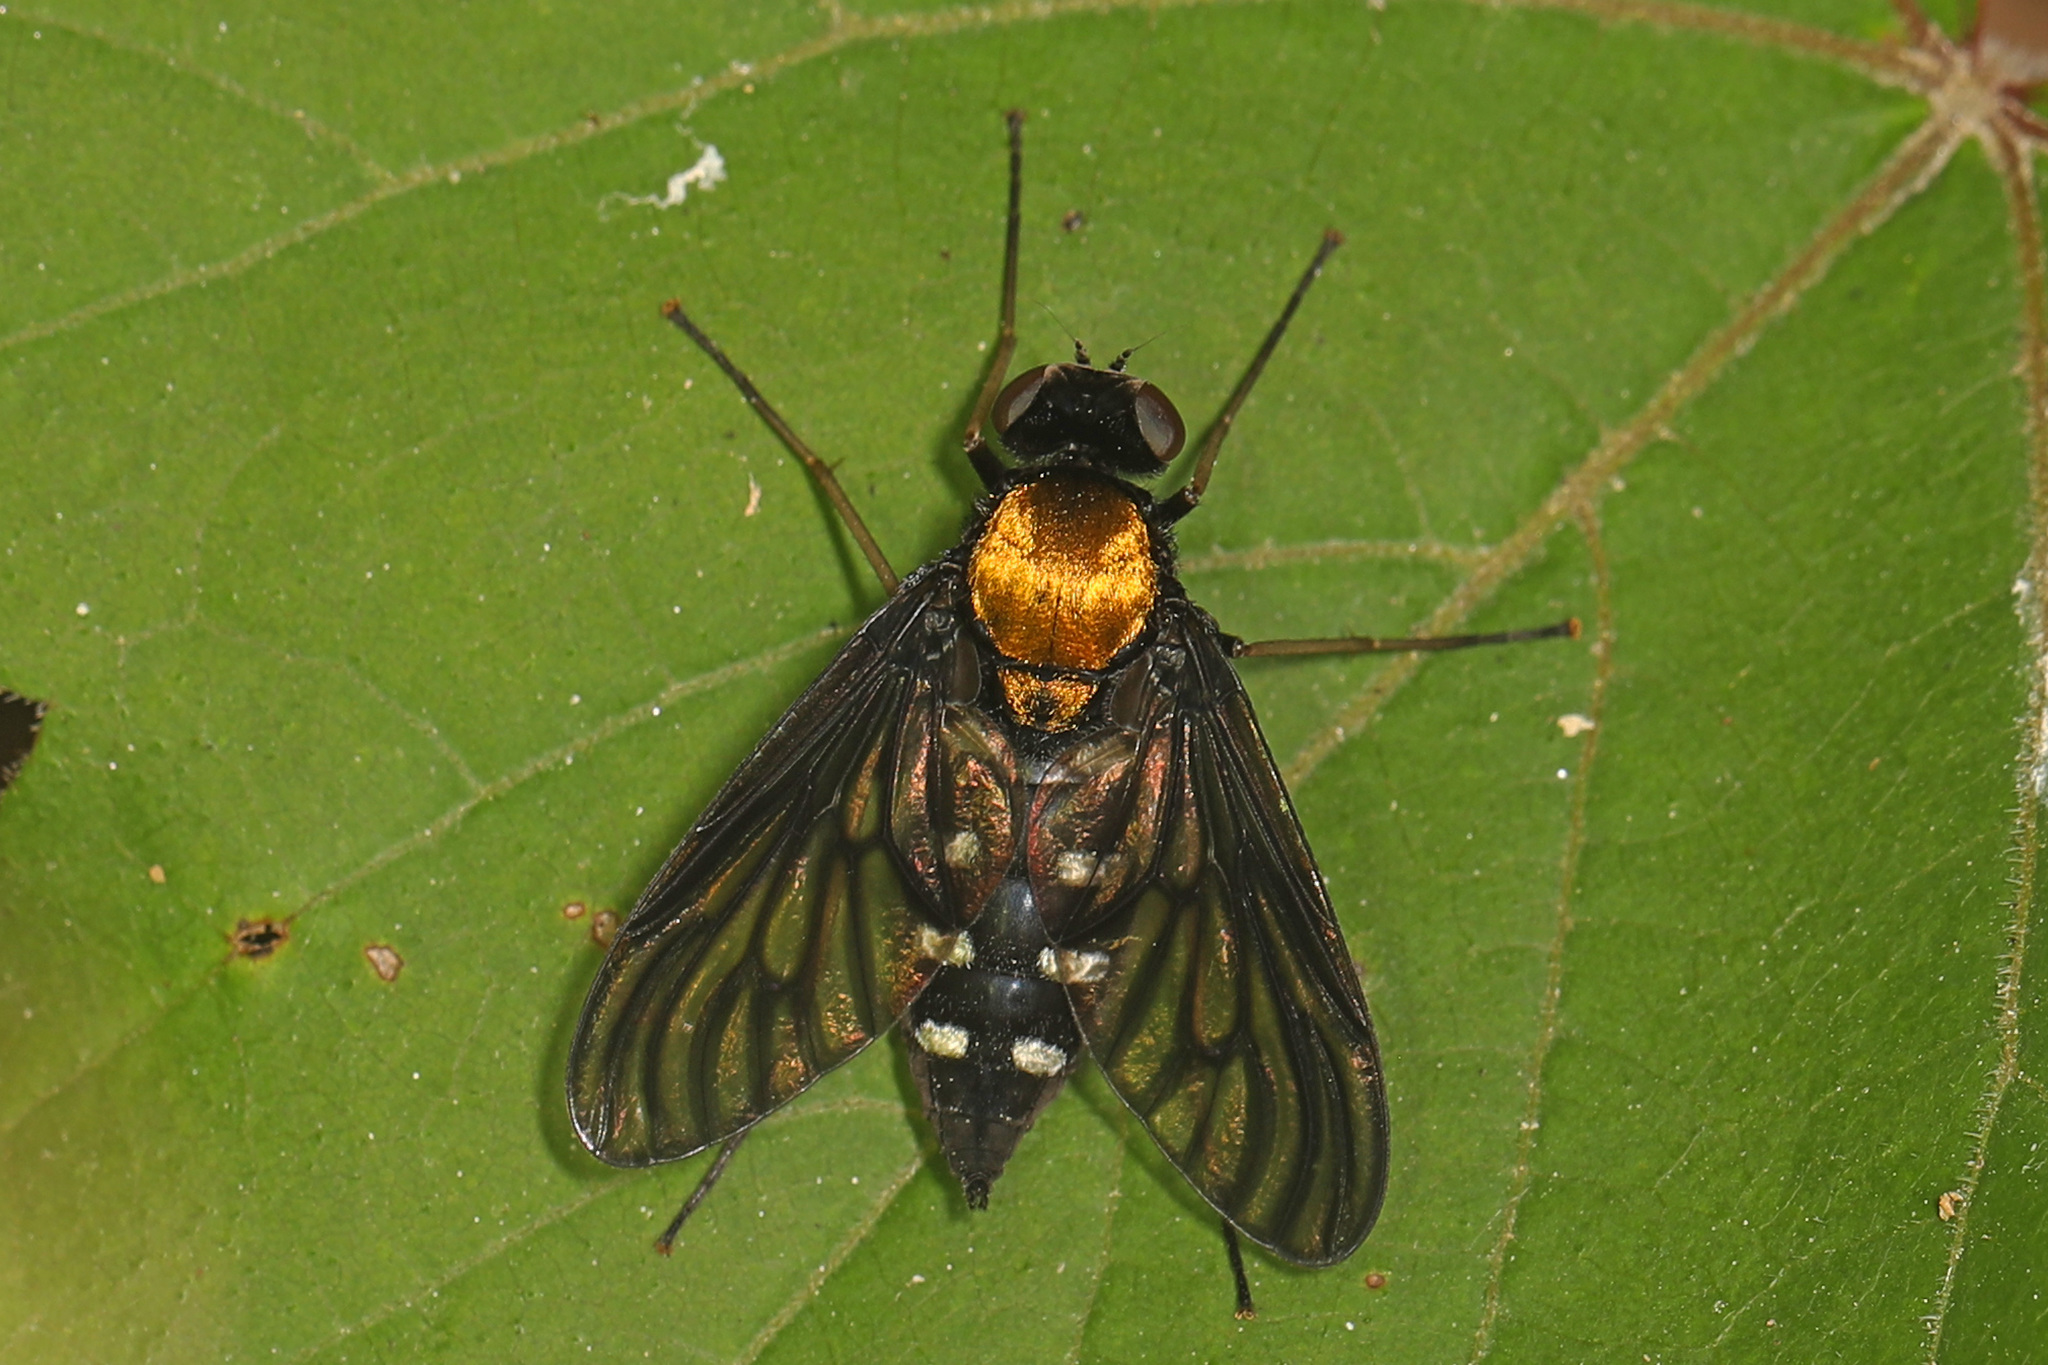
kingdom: Animalia
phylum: Arthropoda
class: Insecta
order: Diptera
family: Rhagionidae
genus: Chrysopilus
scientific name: Chrysopilus thoracicus
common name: Golden-backed snipe fly
